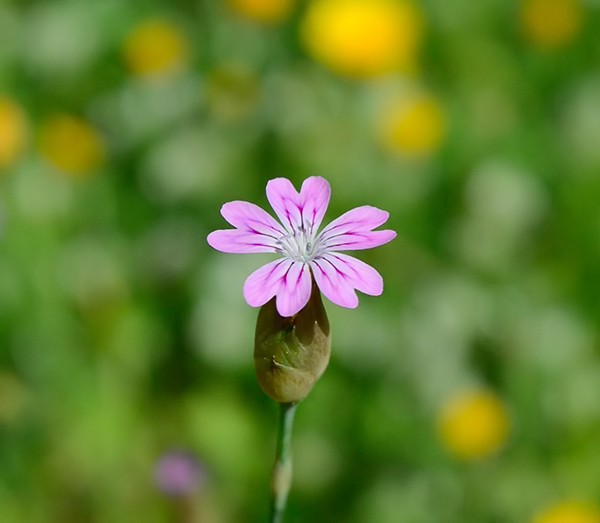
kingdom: Plantae
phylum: Tracheophyta
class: Magnoliopsida
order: Caryophyllales
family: Caryophyllaceae
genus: Petrorhagia
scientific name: Petrorhagia dubia
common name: Hairypink
